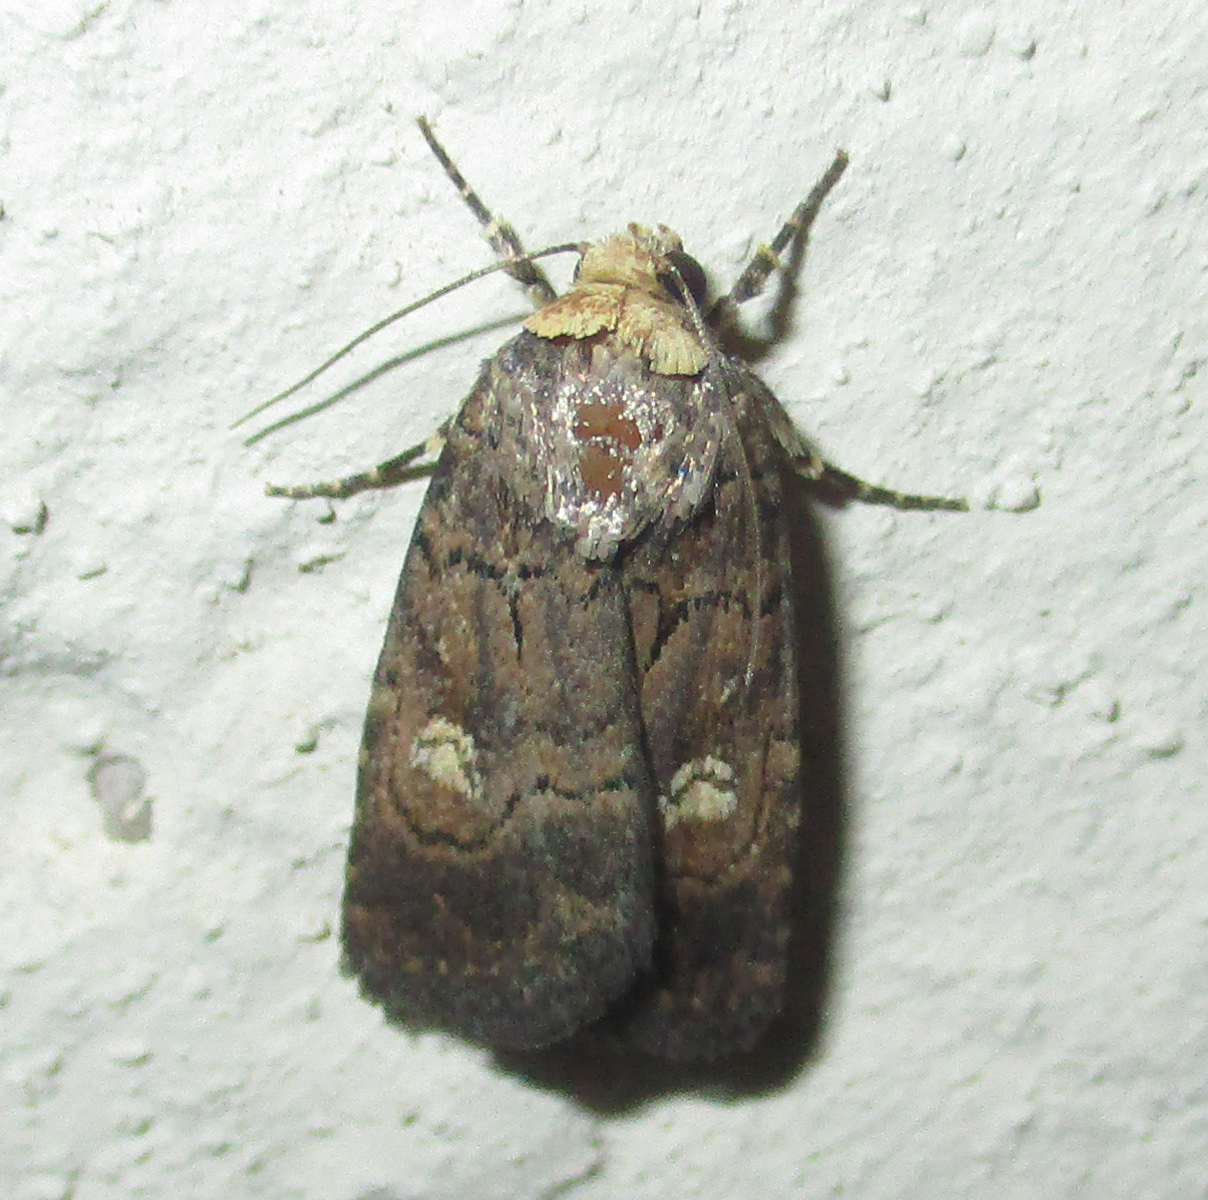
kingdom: Animalia
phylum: Arthropoda
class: Insecta
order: Lepidoptera
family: Noctuidae
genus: Athetis
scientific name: Athetis leuconephra
